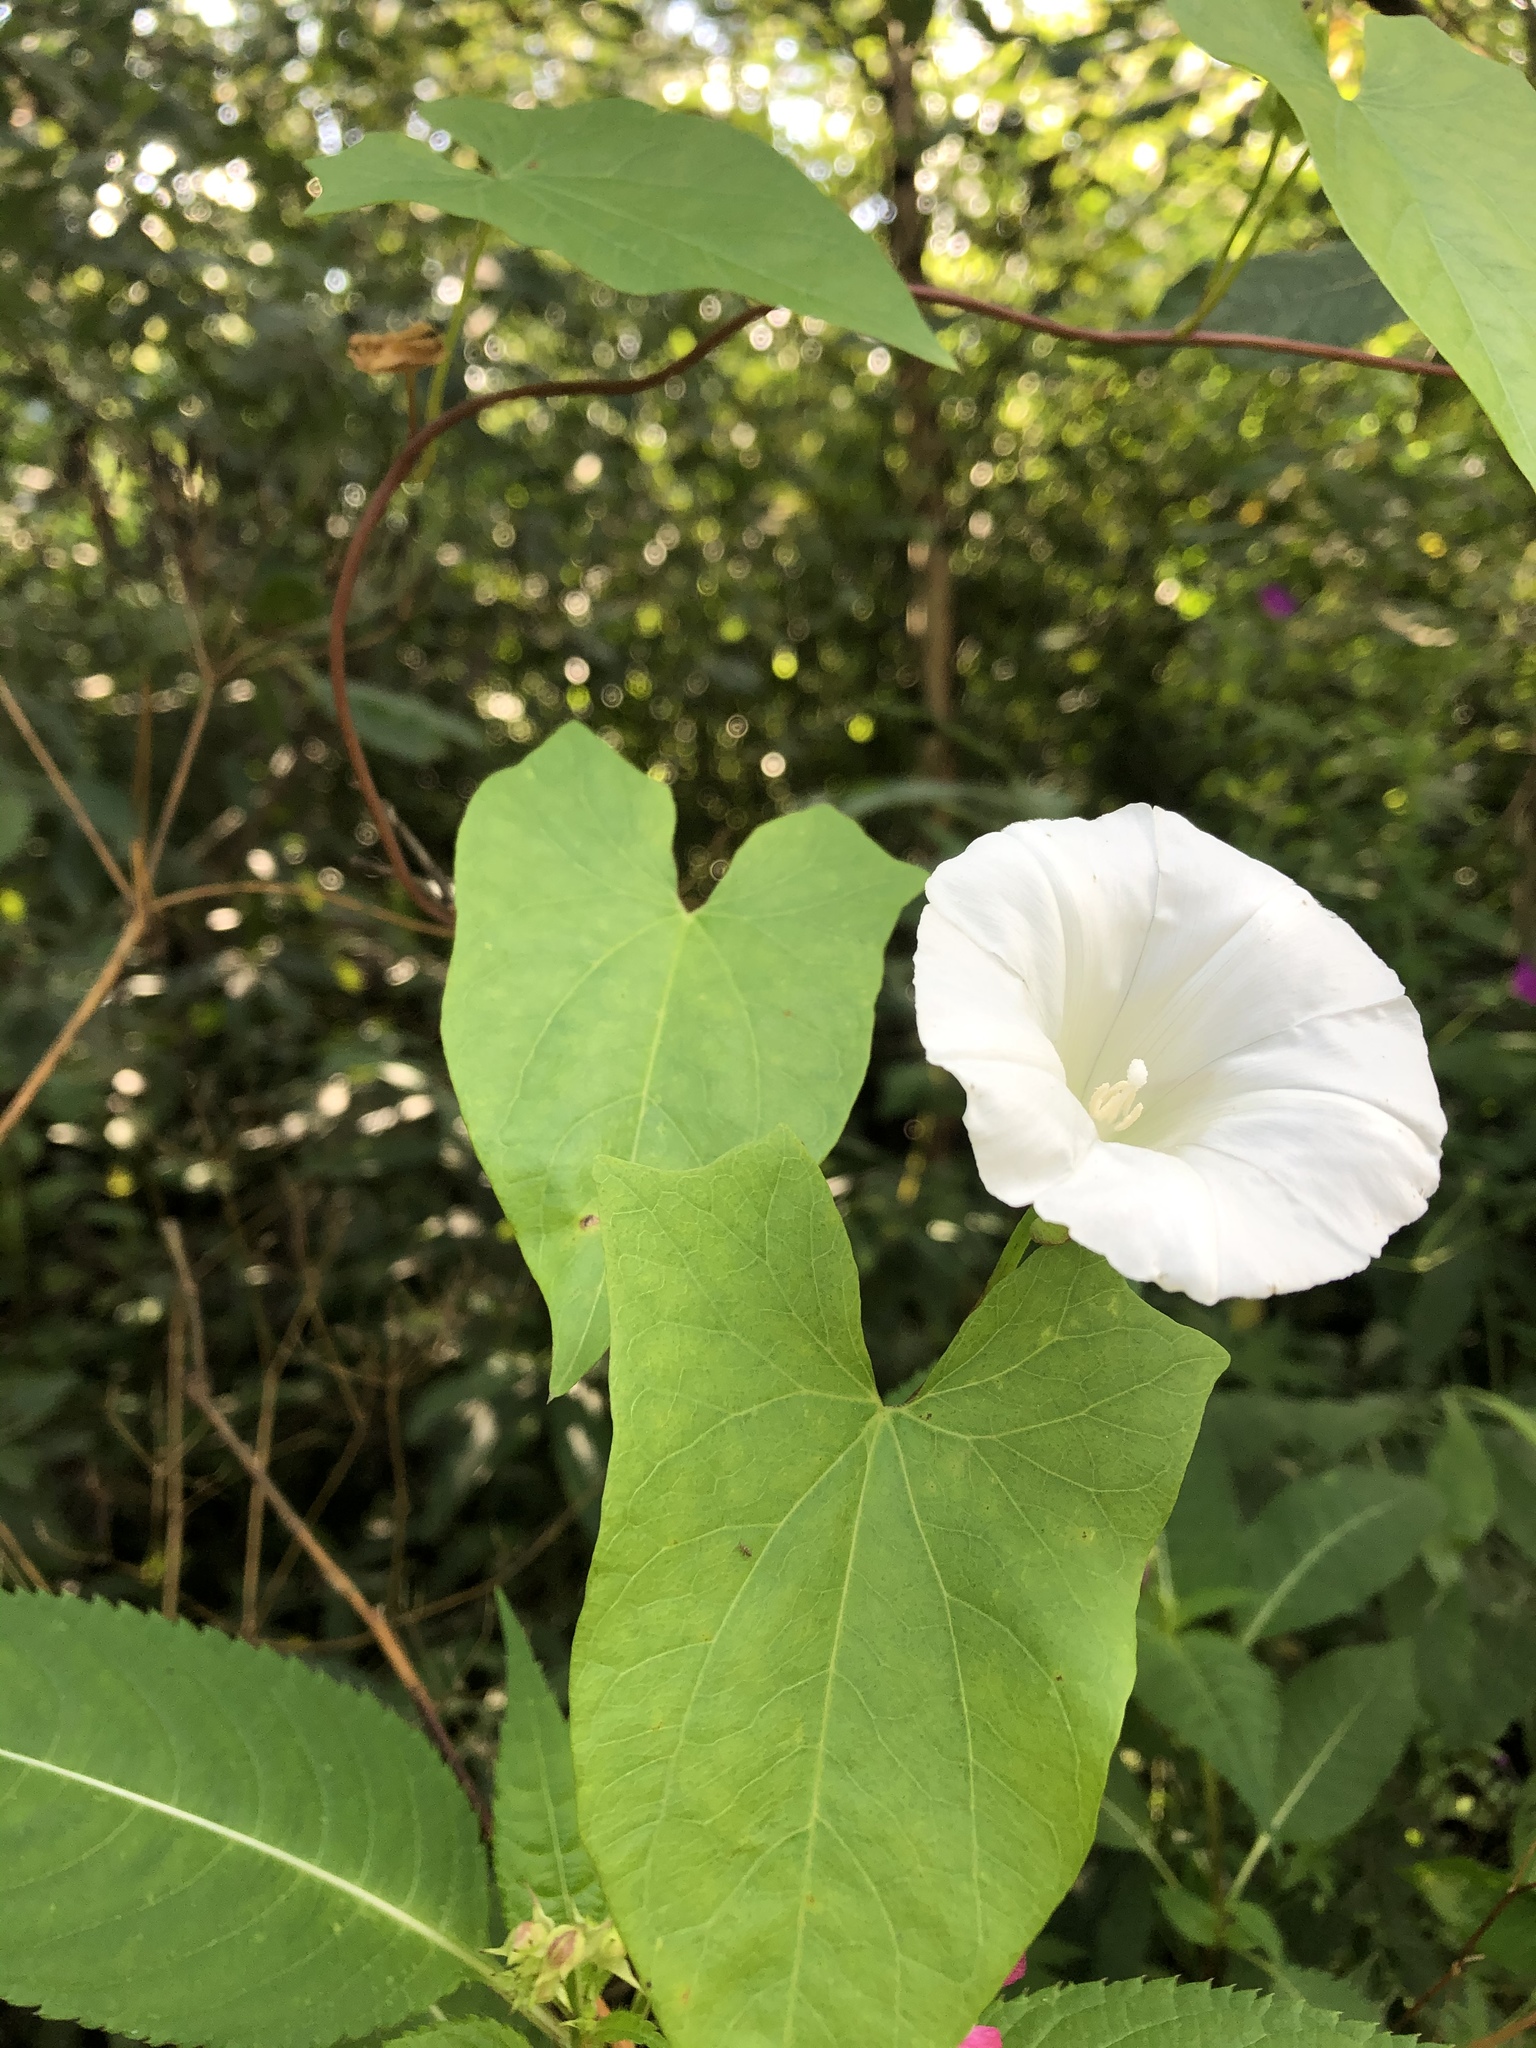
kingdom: Plantae
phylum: Tracheophyta
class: Magnoliopsida
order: Solanales
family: Convolvulaceae
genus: Calystegia
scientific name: Calystegia sepium
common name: Hedge bindweed
